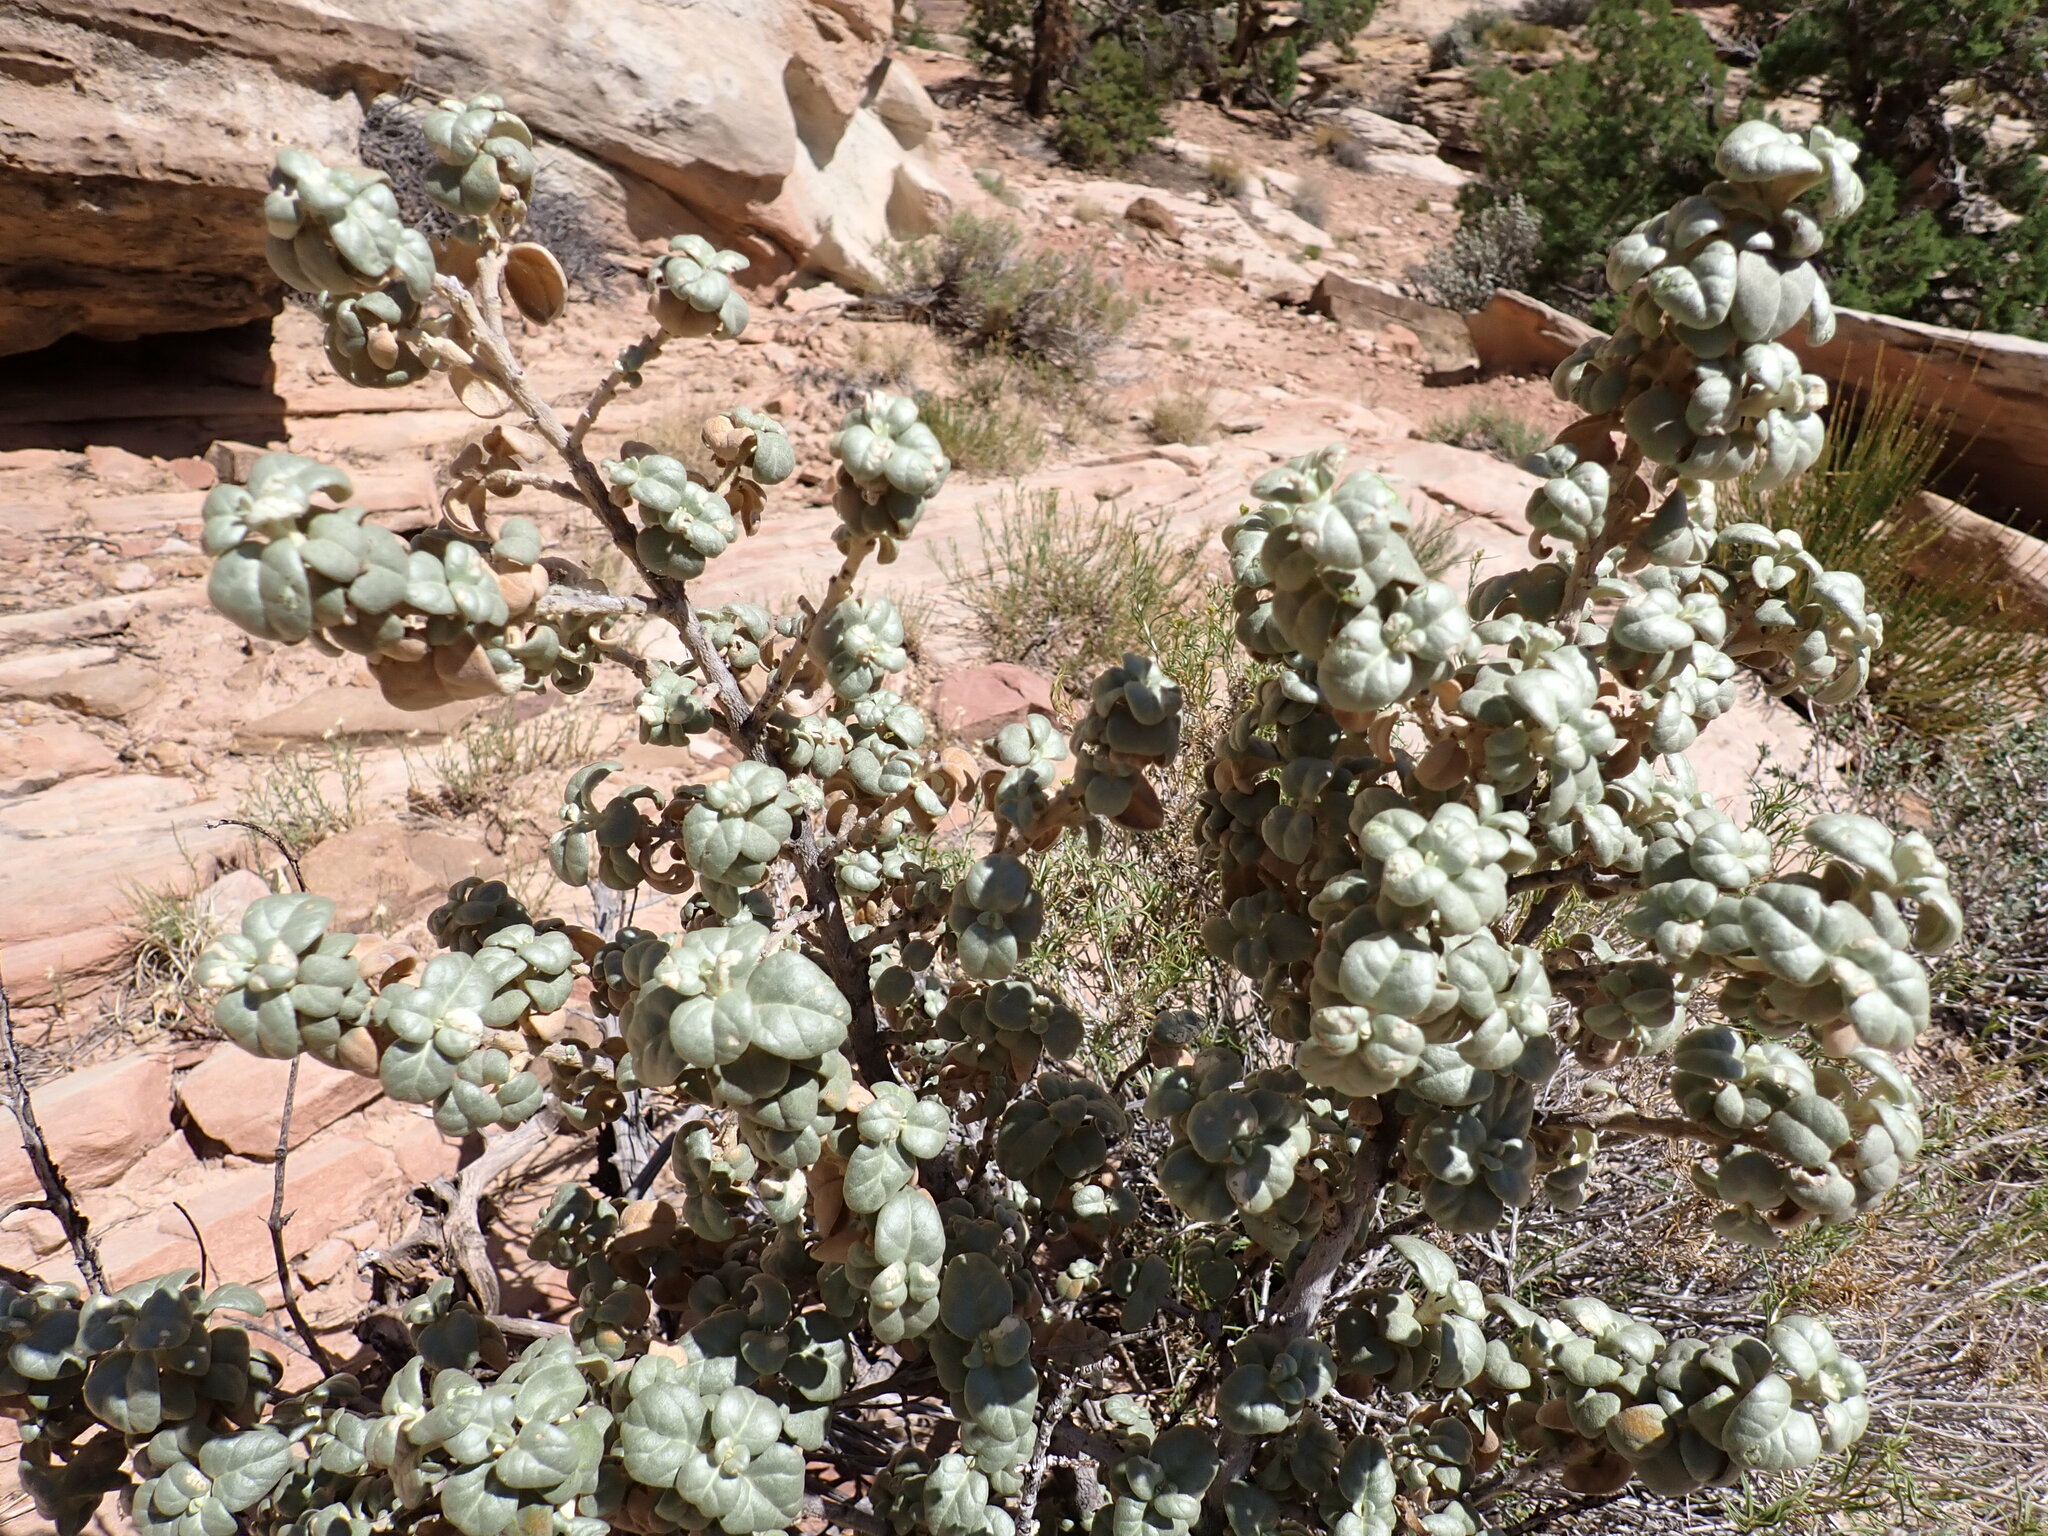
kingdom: Plantae
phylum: Tracheophyta
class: Magnoliopsida
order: Rosales
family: Elaeagnaceae
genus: Shepherdia
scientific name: Shepherdia rotundifolia
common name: Silverscale
